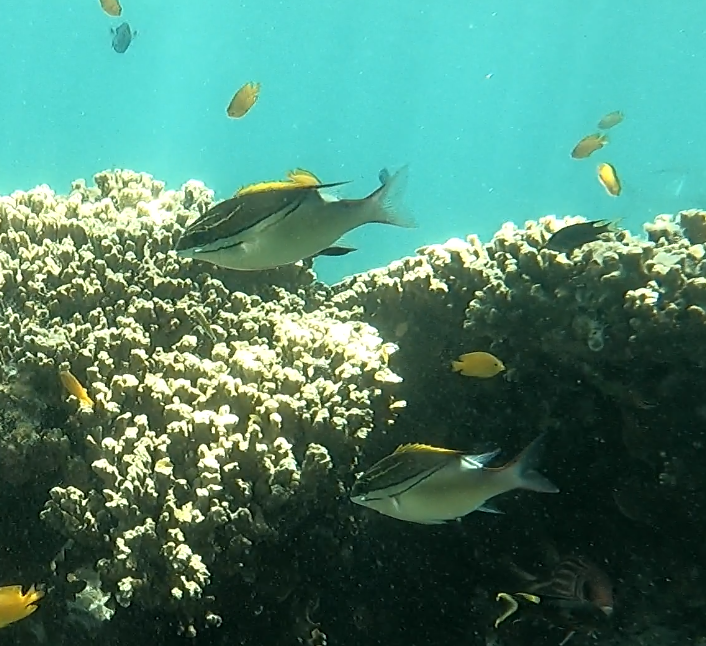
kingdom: Animalia
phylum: Chordata
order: Perciformes
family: Nemipteridae
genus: Scolopsis
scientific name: Scolopsis bilineata
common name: Two-lined monocle bream
